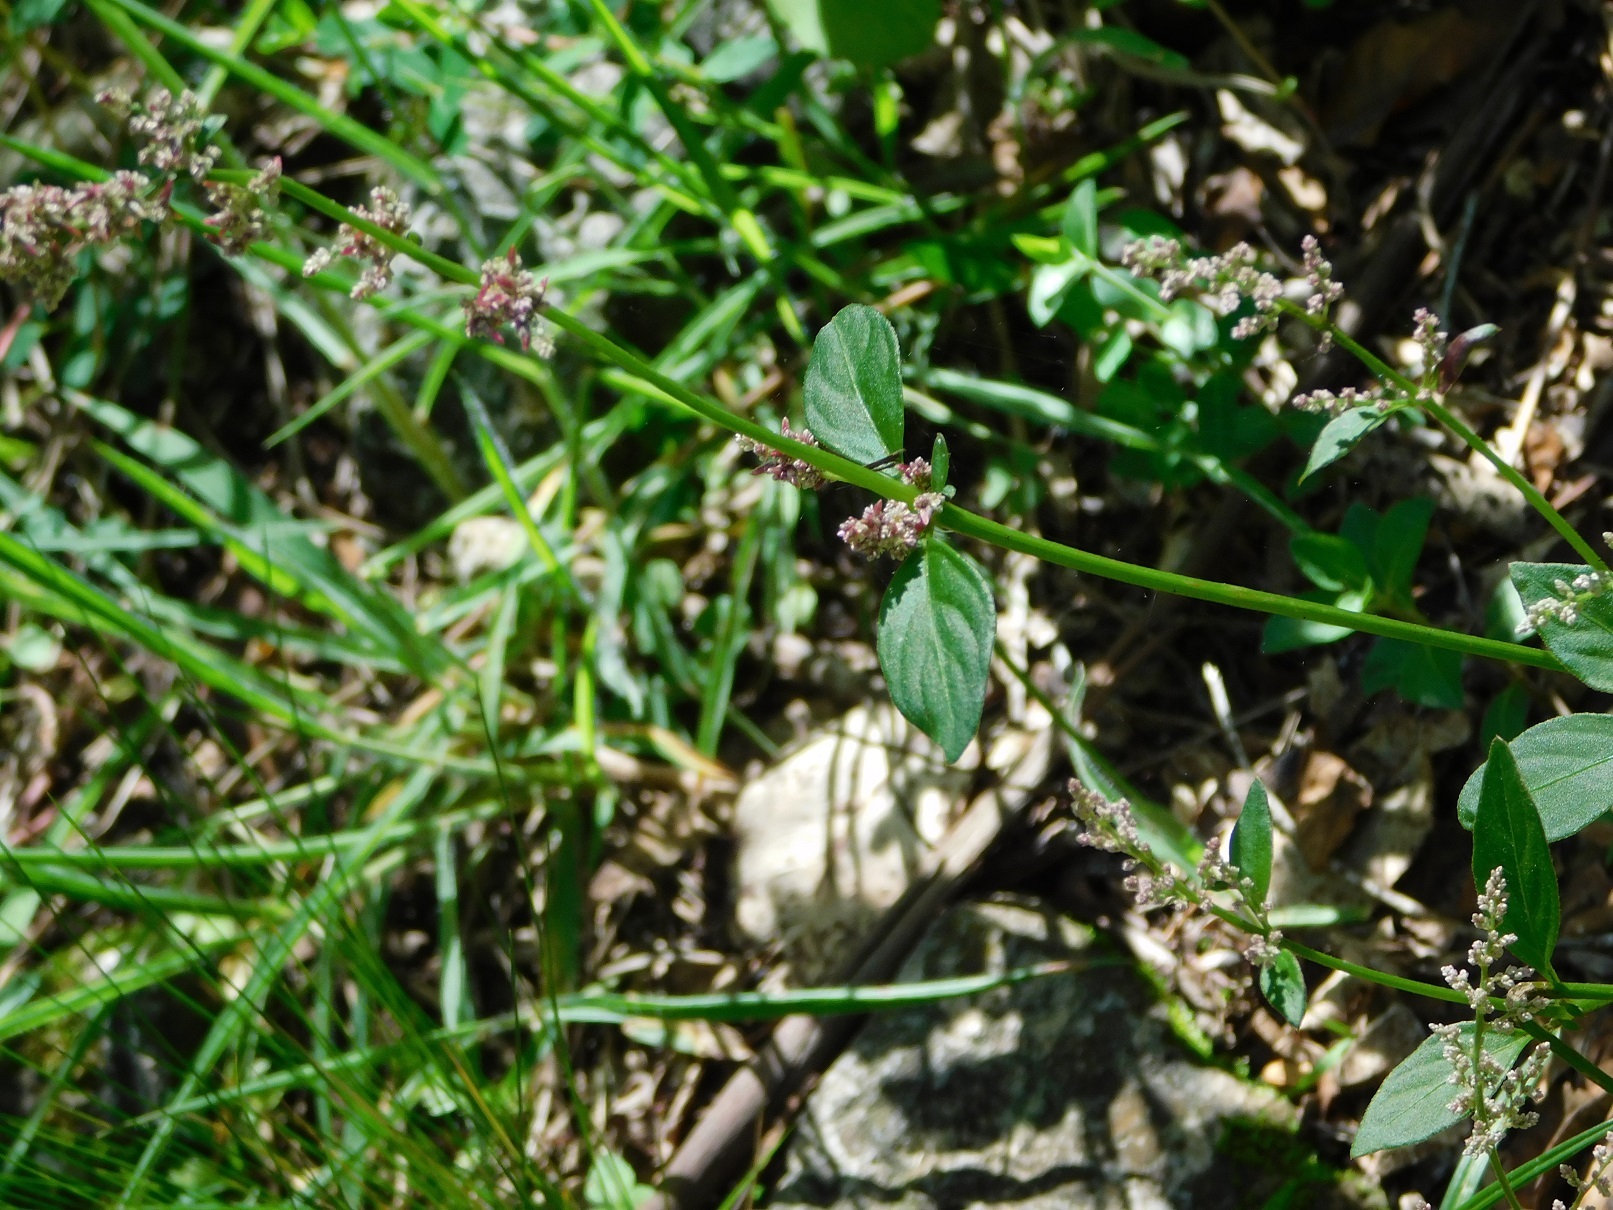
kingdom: Plantae
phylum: Tracheophyta
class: Magnoliopsida
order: Caryophyllales
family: Amaranthaceae
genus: Iresine
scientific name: Iresine diffusa
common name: Juba's-bush
